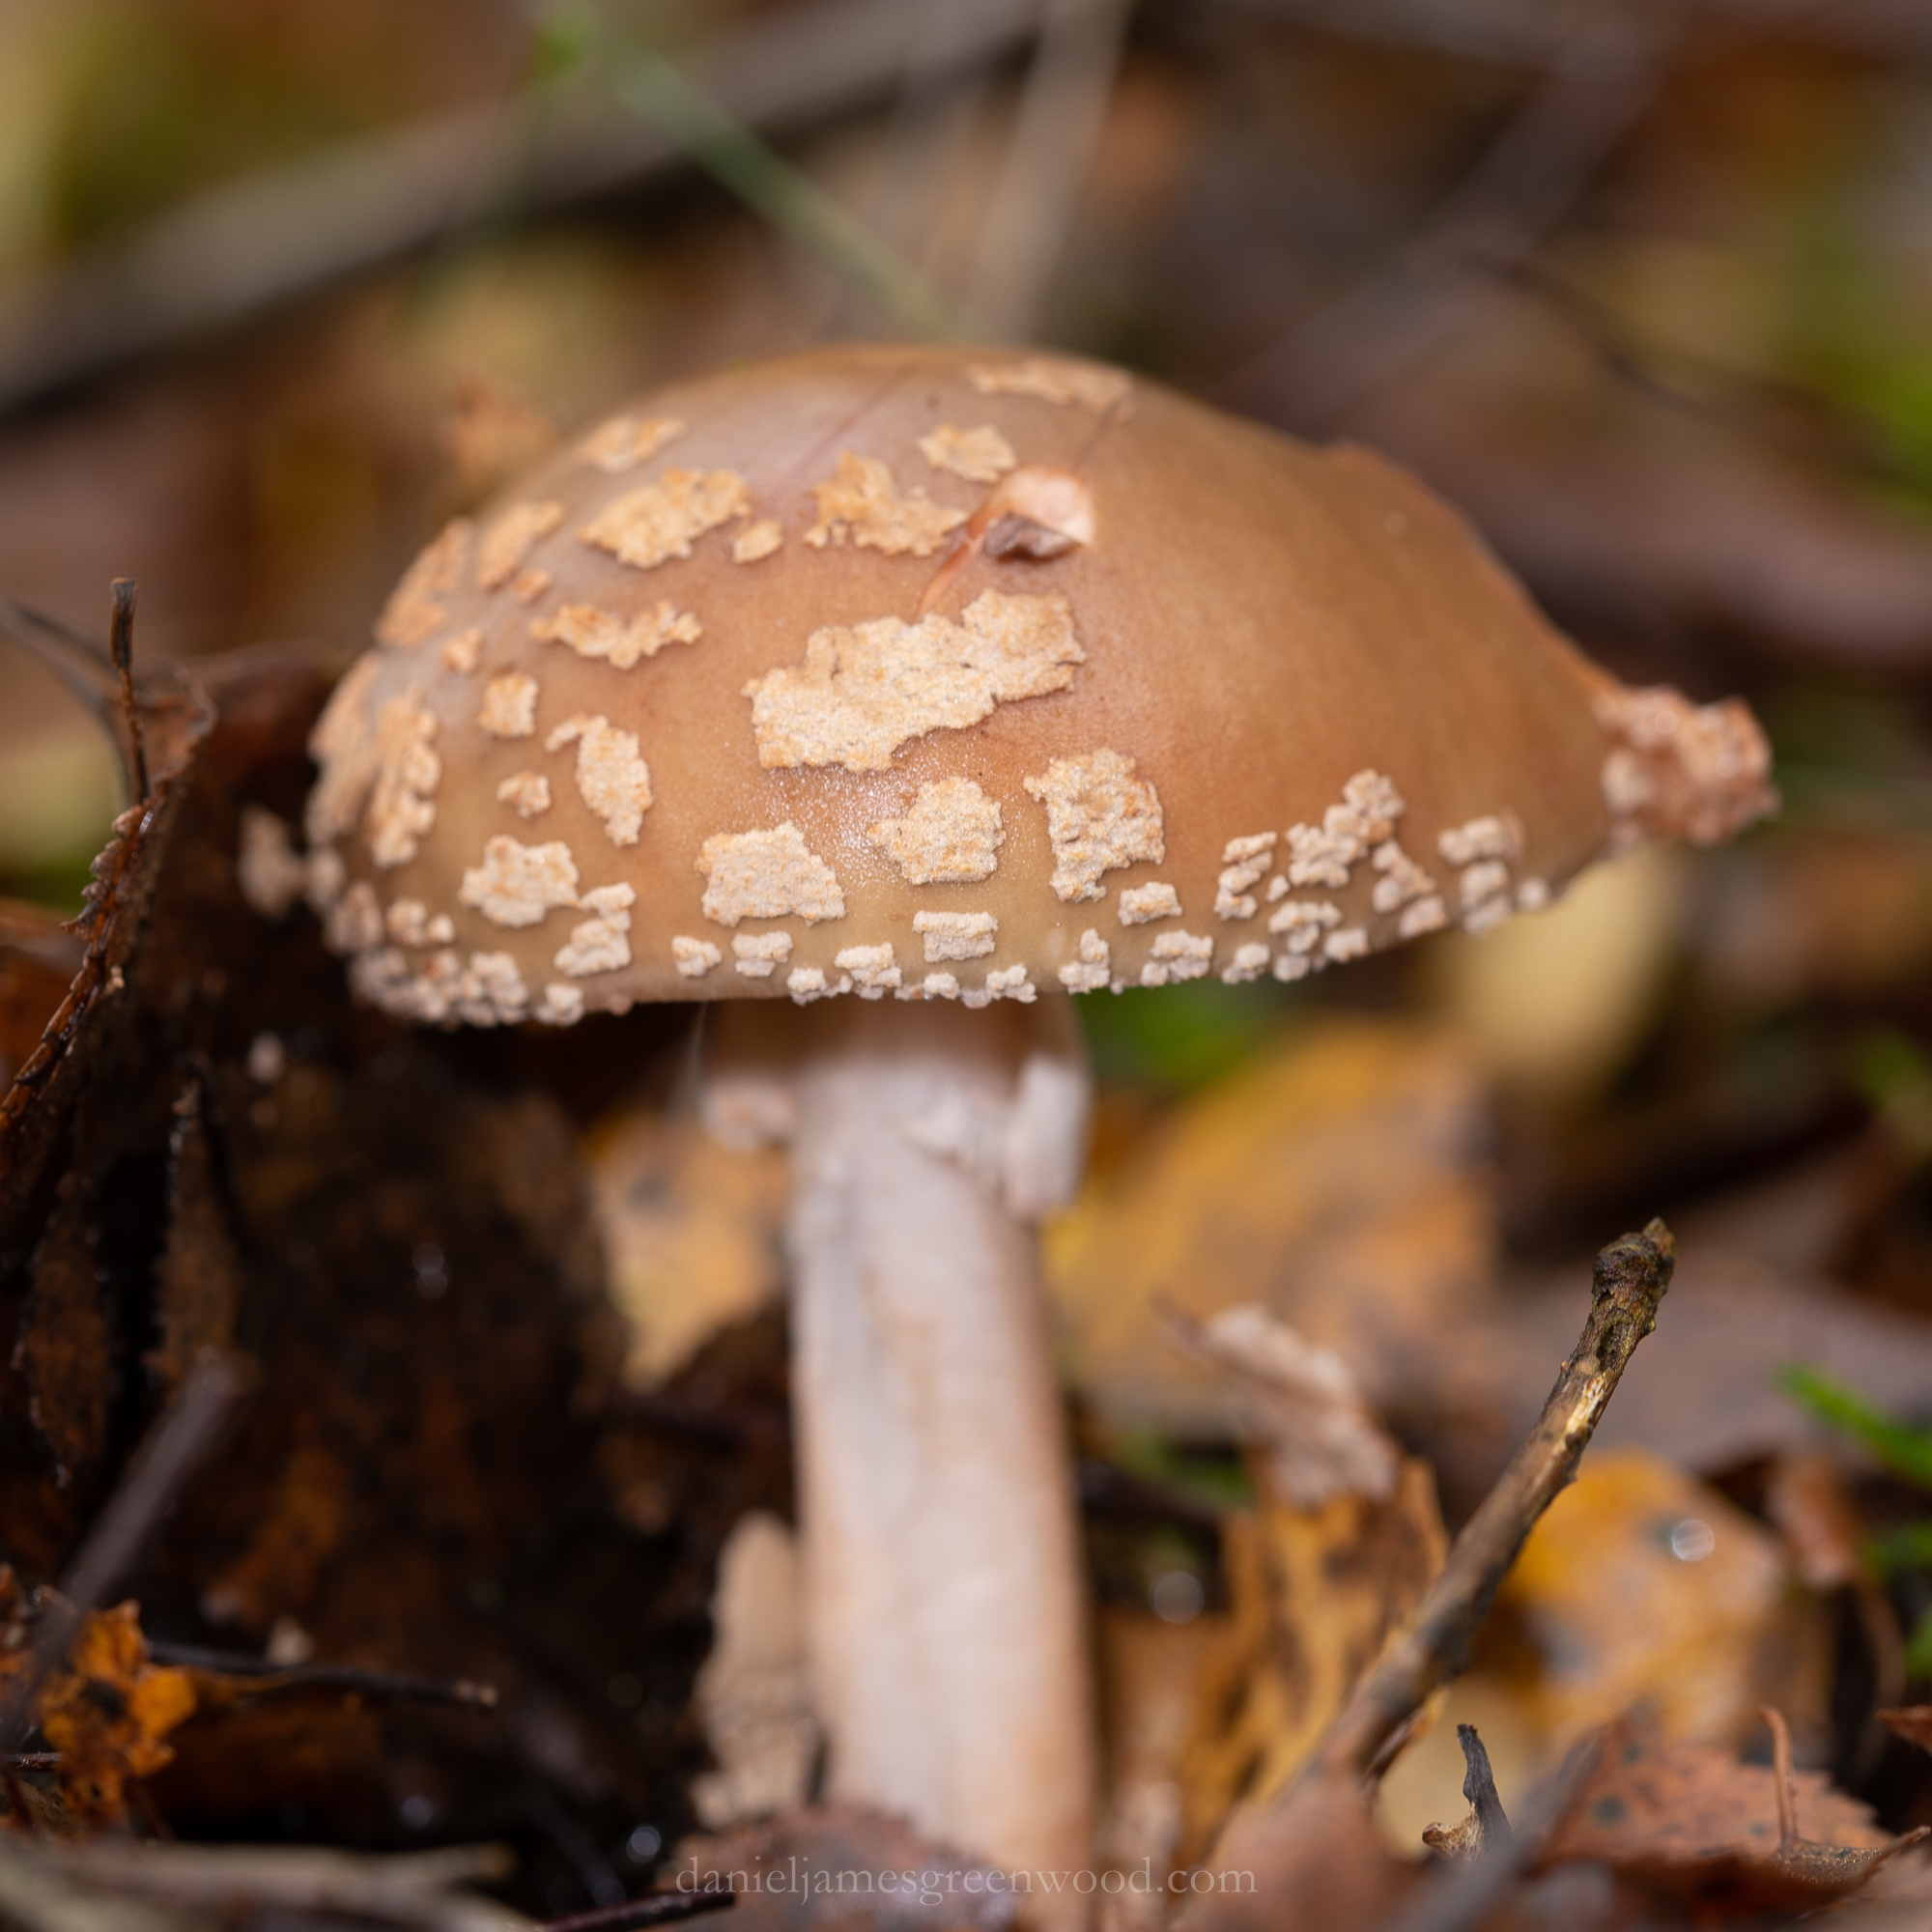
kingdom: Fungi
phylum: Basidiomycota
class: Agaricomycetes
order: Agaricales
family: Amanitaceae
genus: Amanita
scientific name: Amanita rubescens
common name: Blusher
